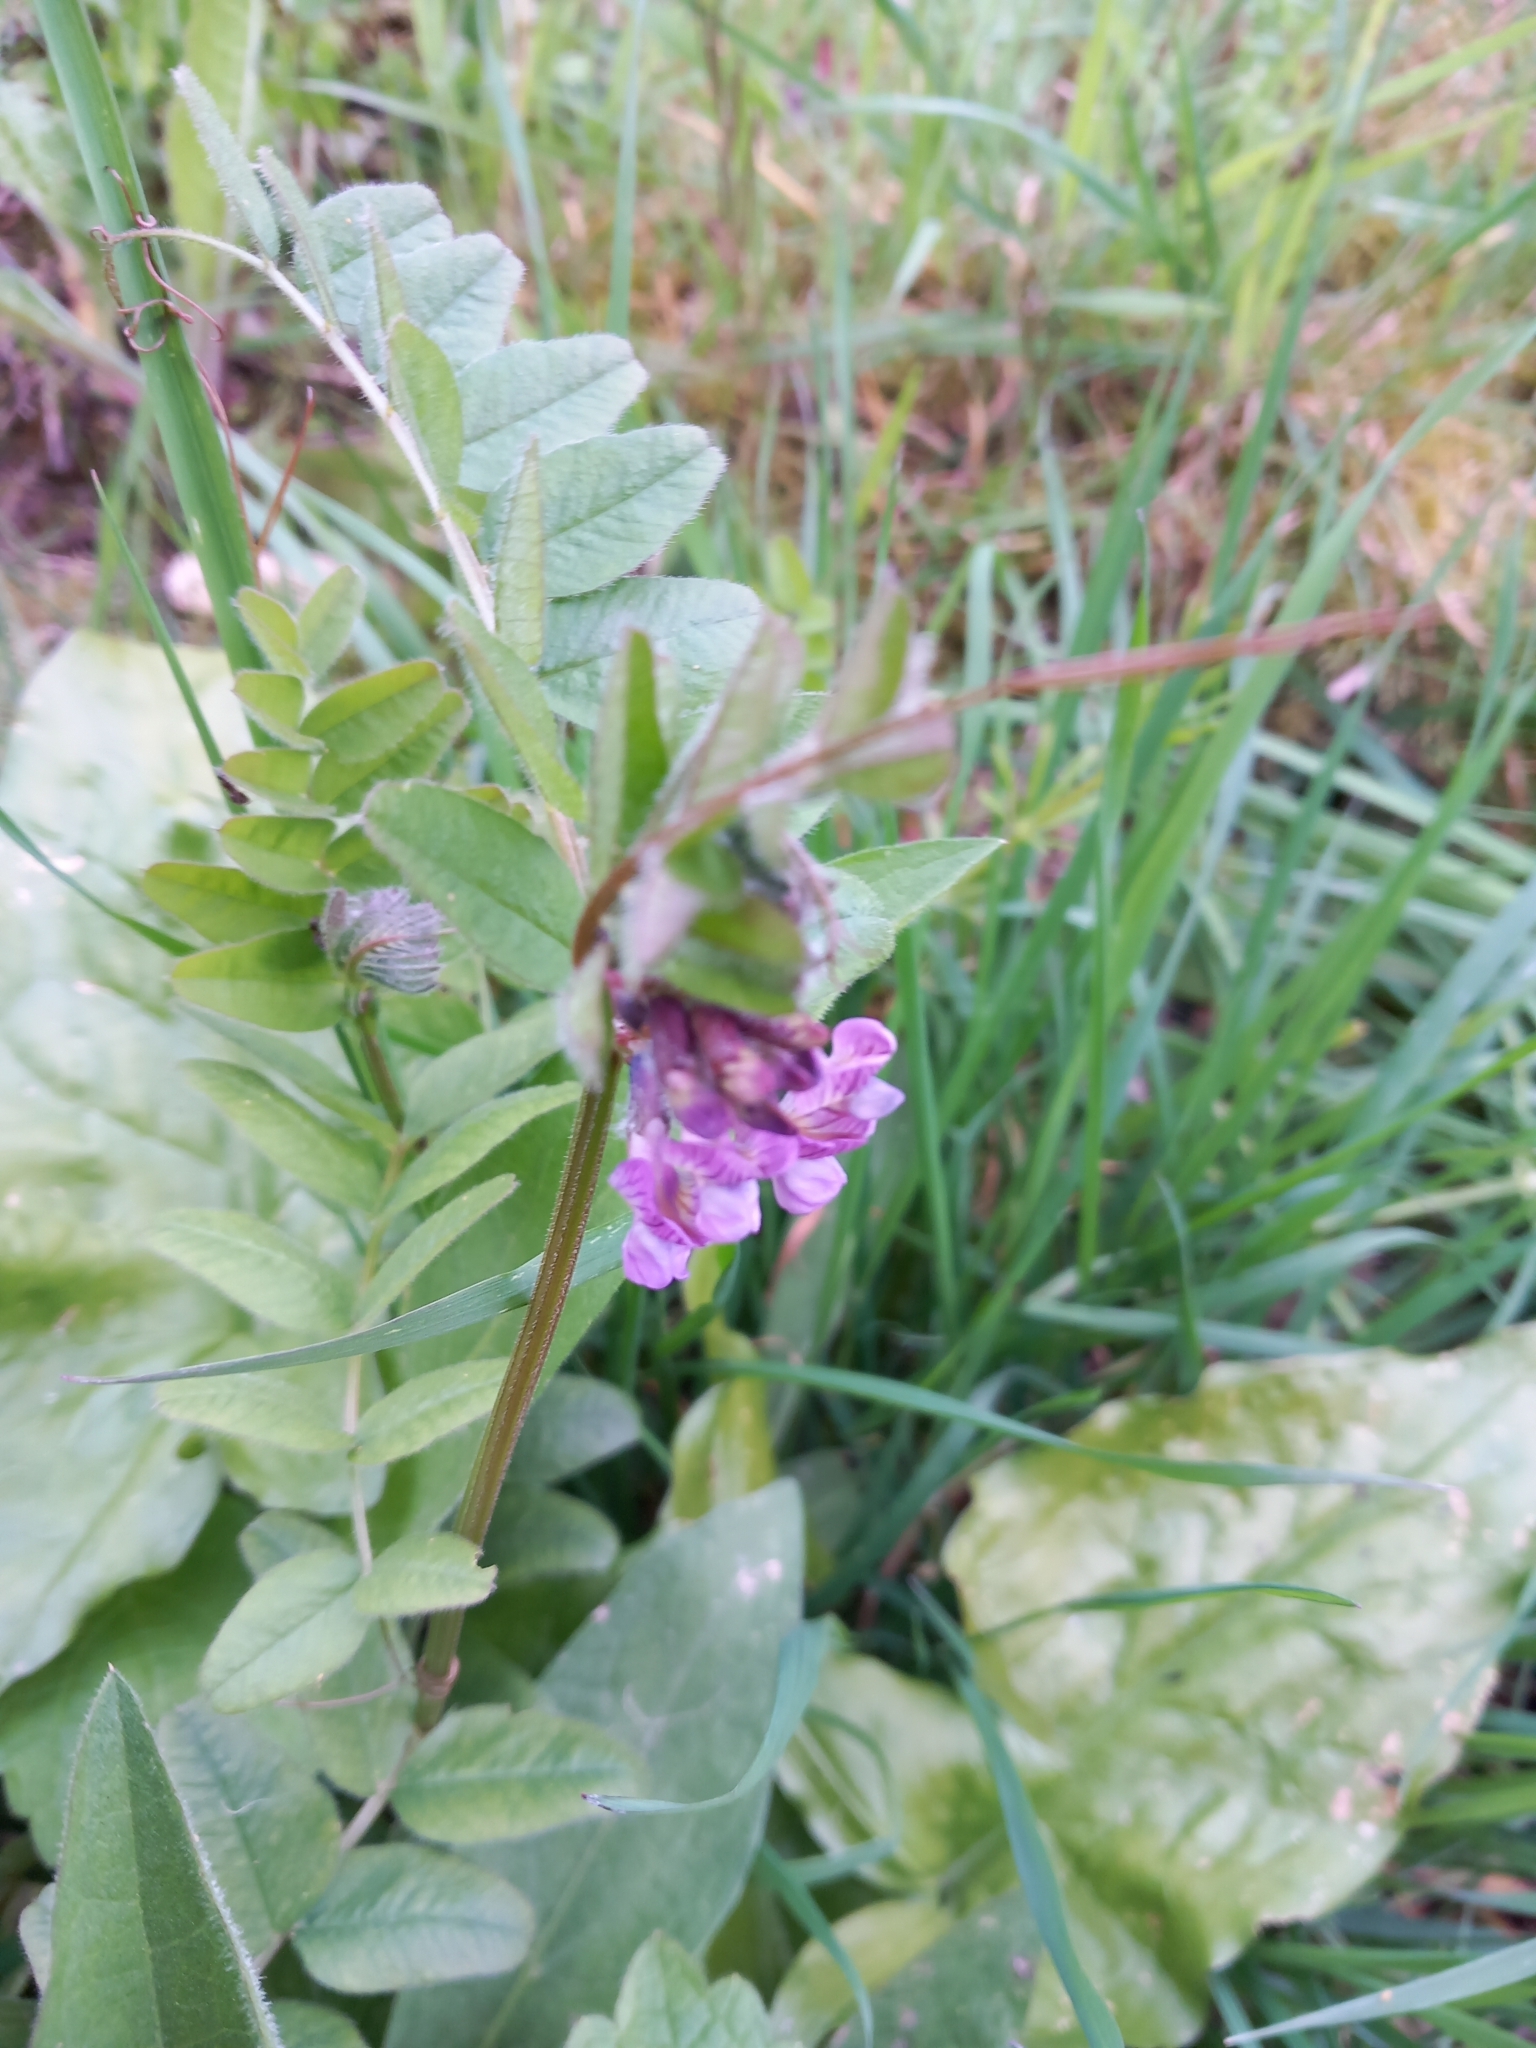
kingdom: Plantae
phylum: Tracheophyta
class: Magnoliopsida
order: Fabales
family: Fabaceae
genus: Vicia
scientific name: Vicia sepium
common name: Bush vetch
